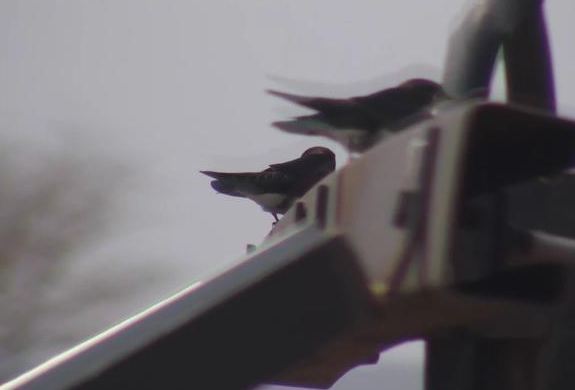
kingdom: Animalia
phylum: Chordata
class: Aves
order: Passeriformes
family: Hirundinidae
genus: Hirundo
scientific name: Hirundo smithii
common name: Wire-tailed swallow
